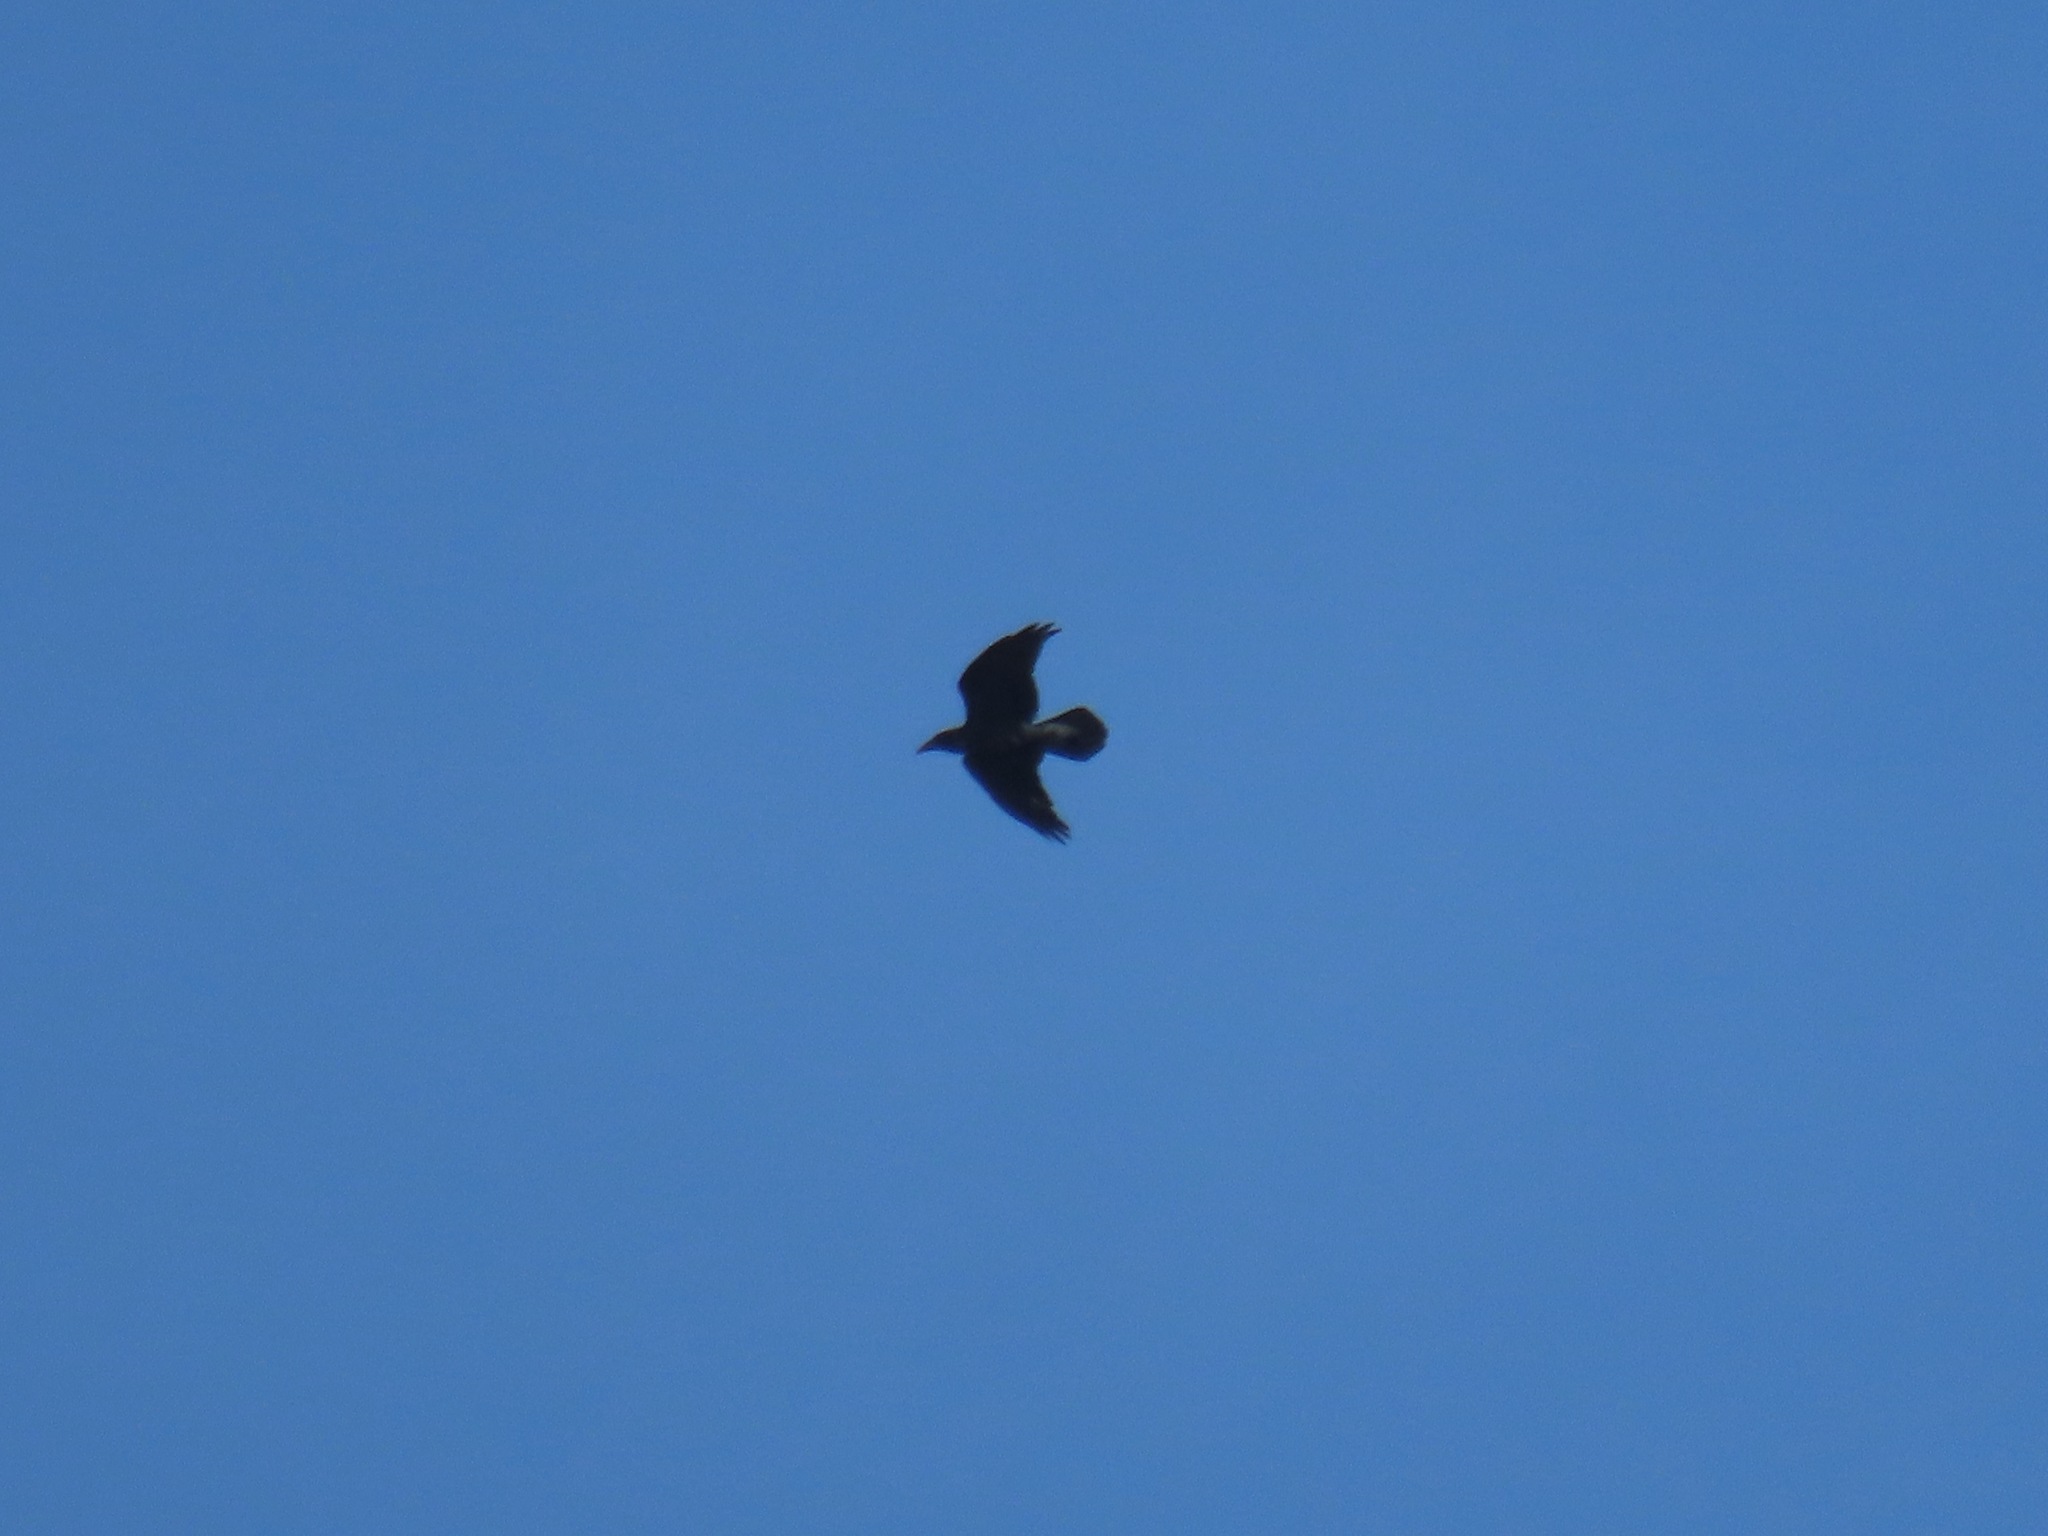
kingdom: Animalia
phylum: Chordata
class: Aves
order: Passeriformes
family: Corvidae
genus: Corvus
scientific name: Corvus corax
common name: Common raven
